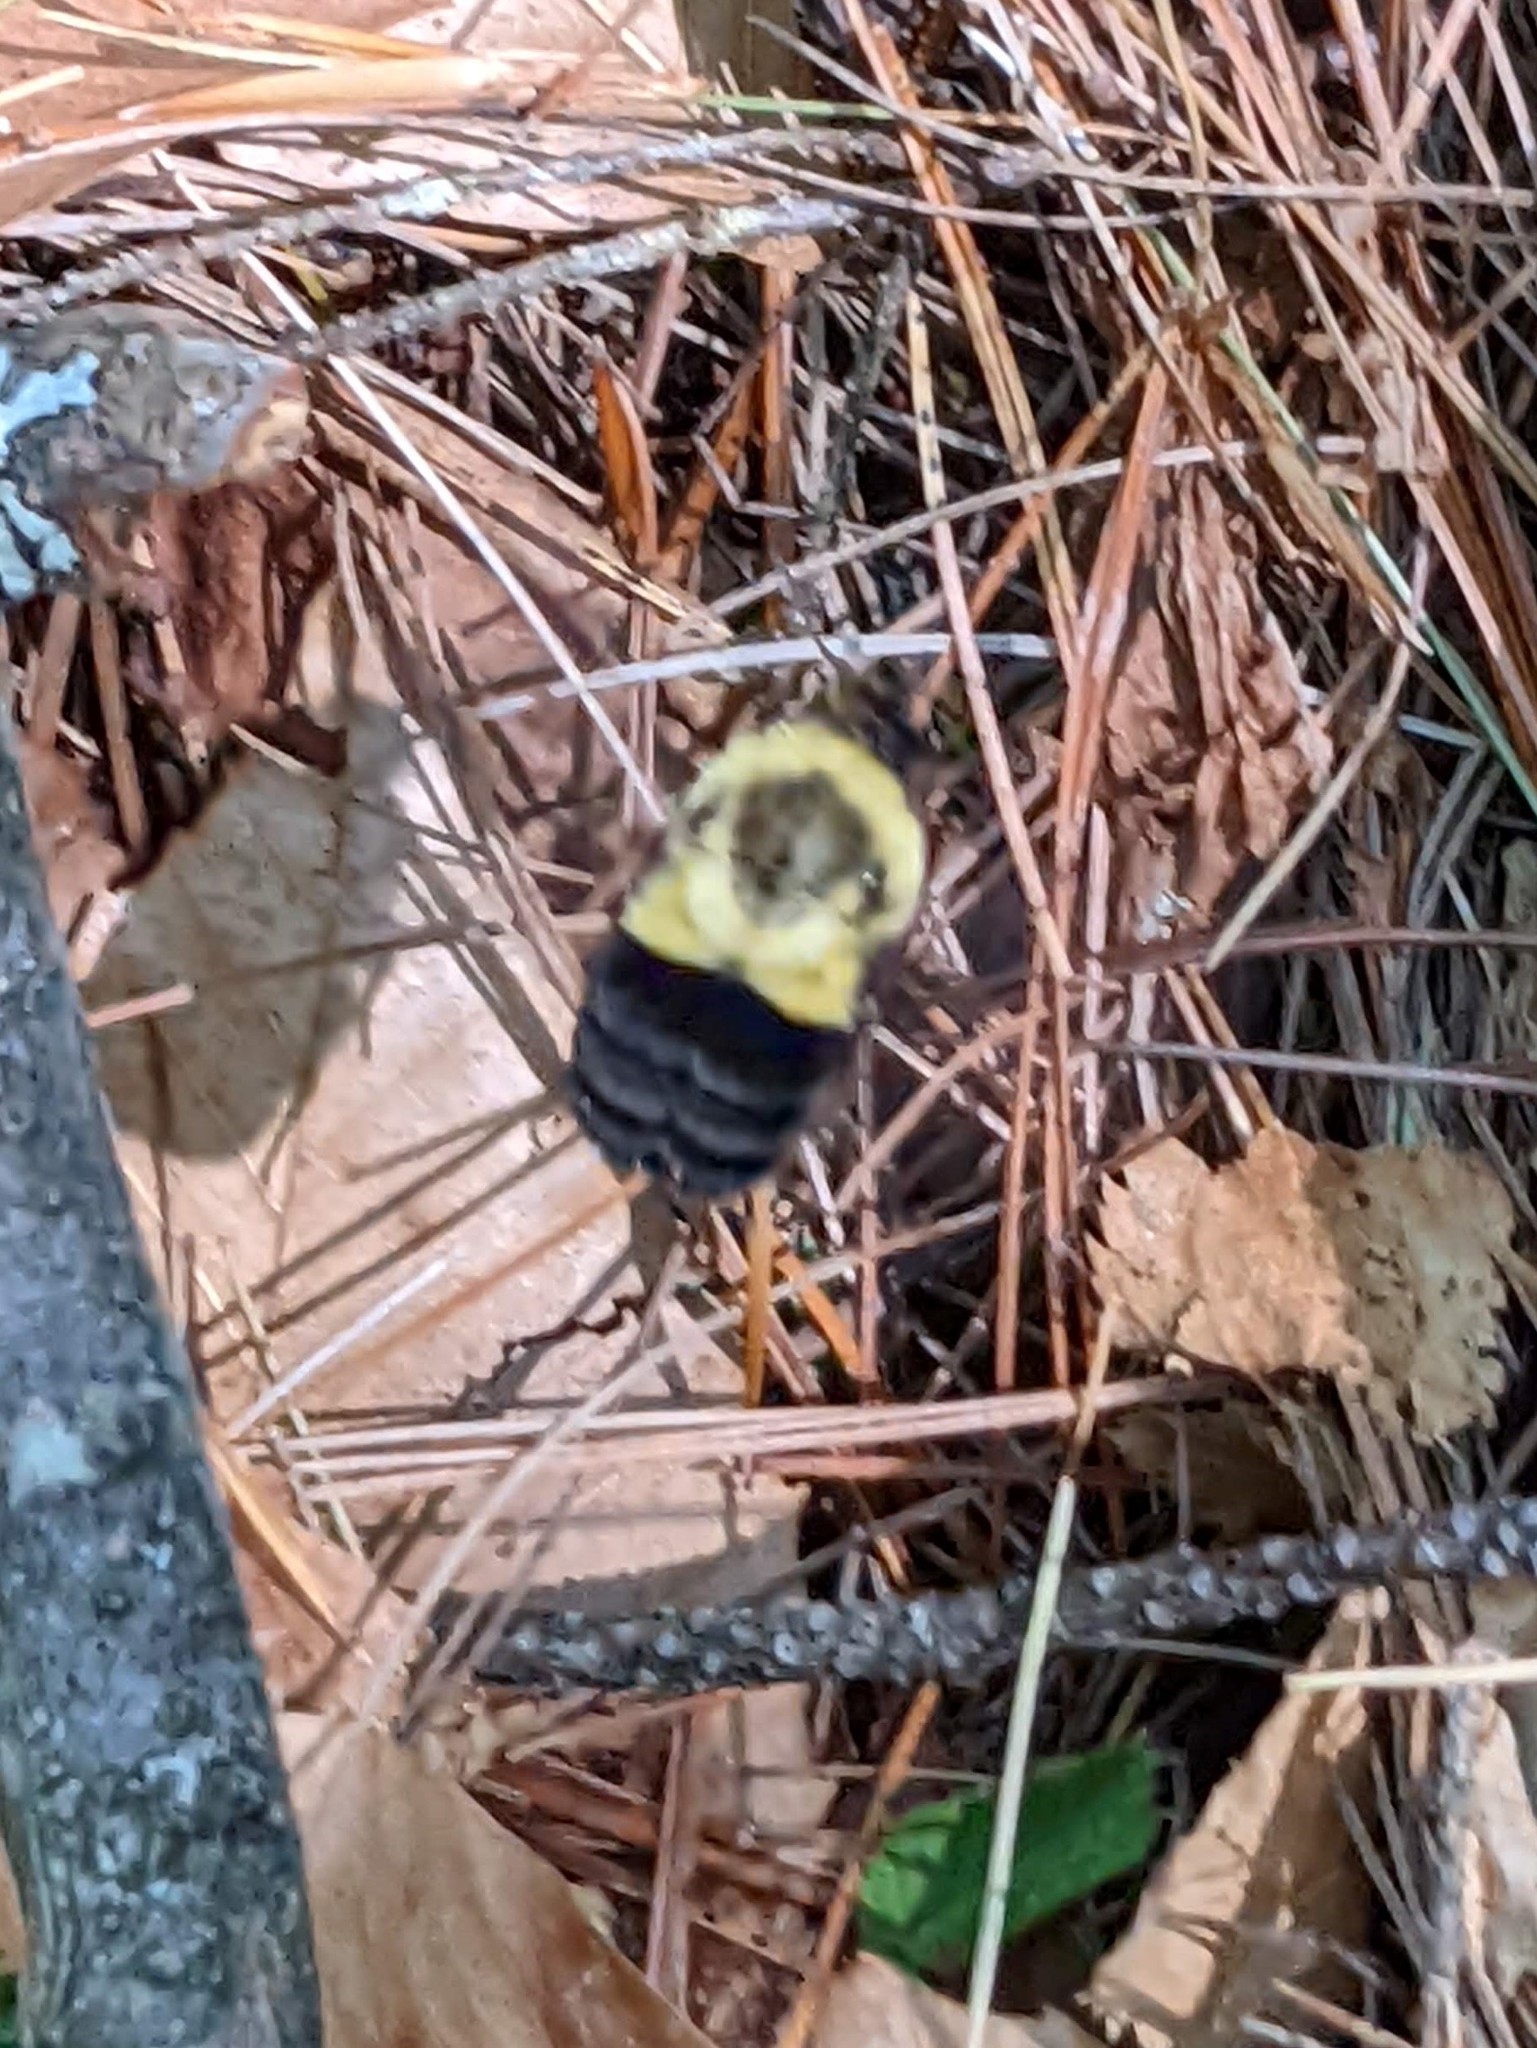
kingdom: Animalia
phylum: Arthropoda
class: Insecta
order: Hymenoptera
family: Apidae
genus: Bombus
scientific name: Bombus impatiens
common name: Common eastern bumble bee
